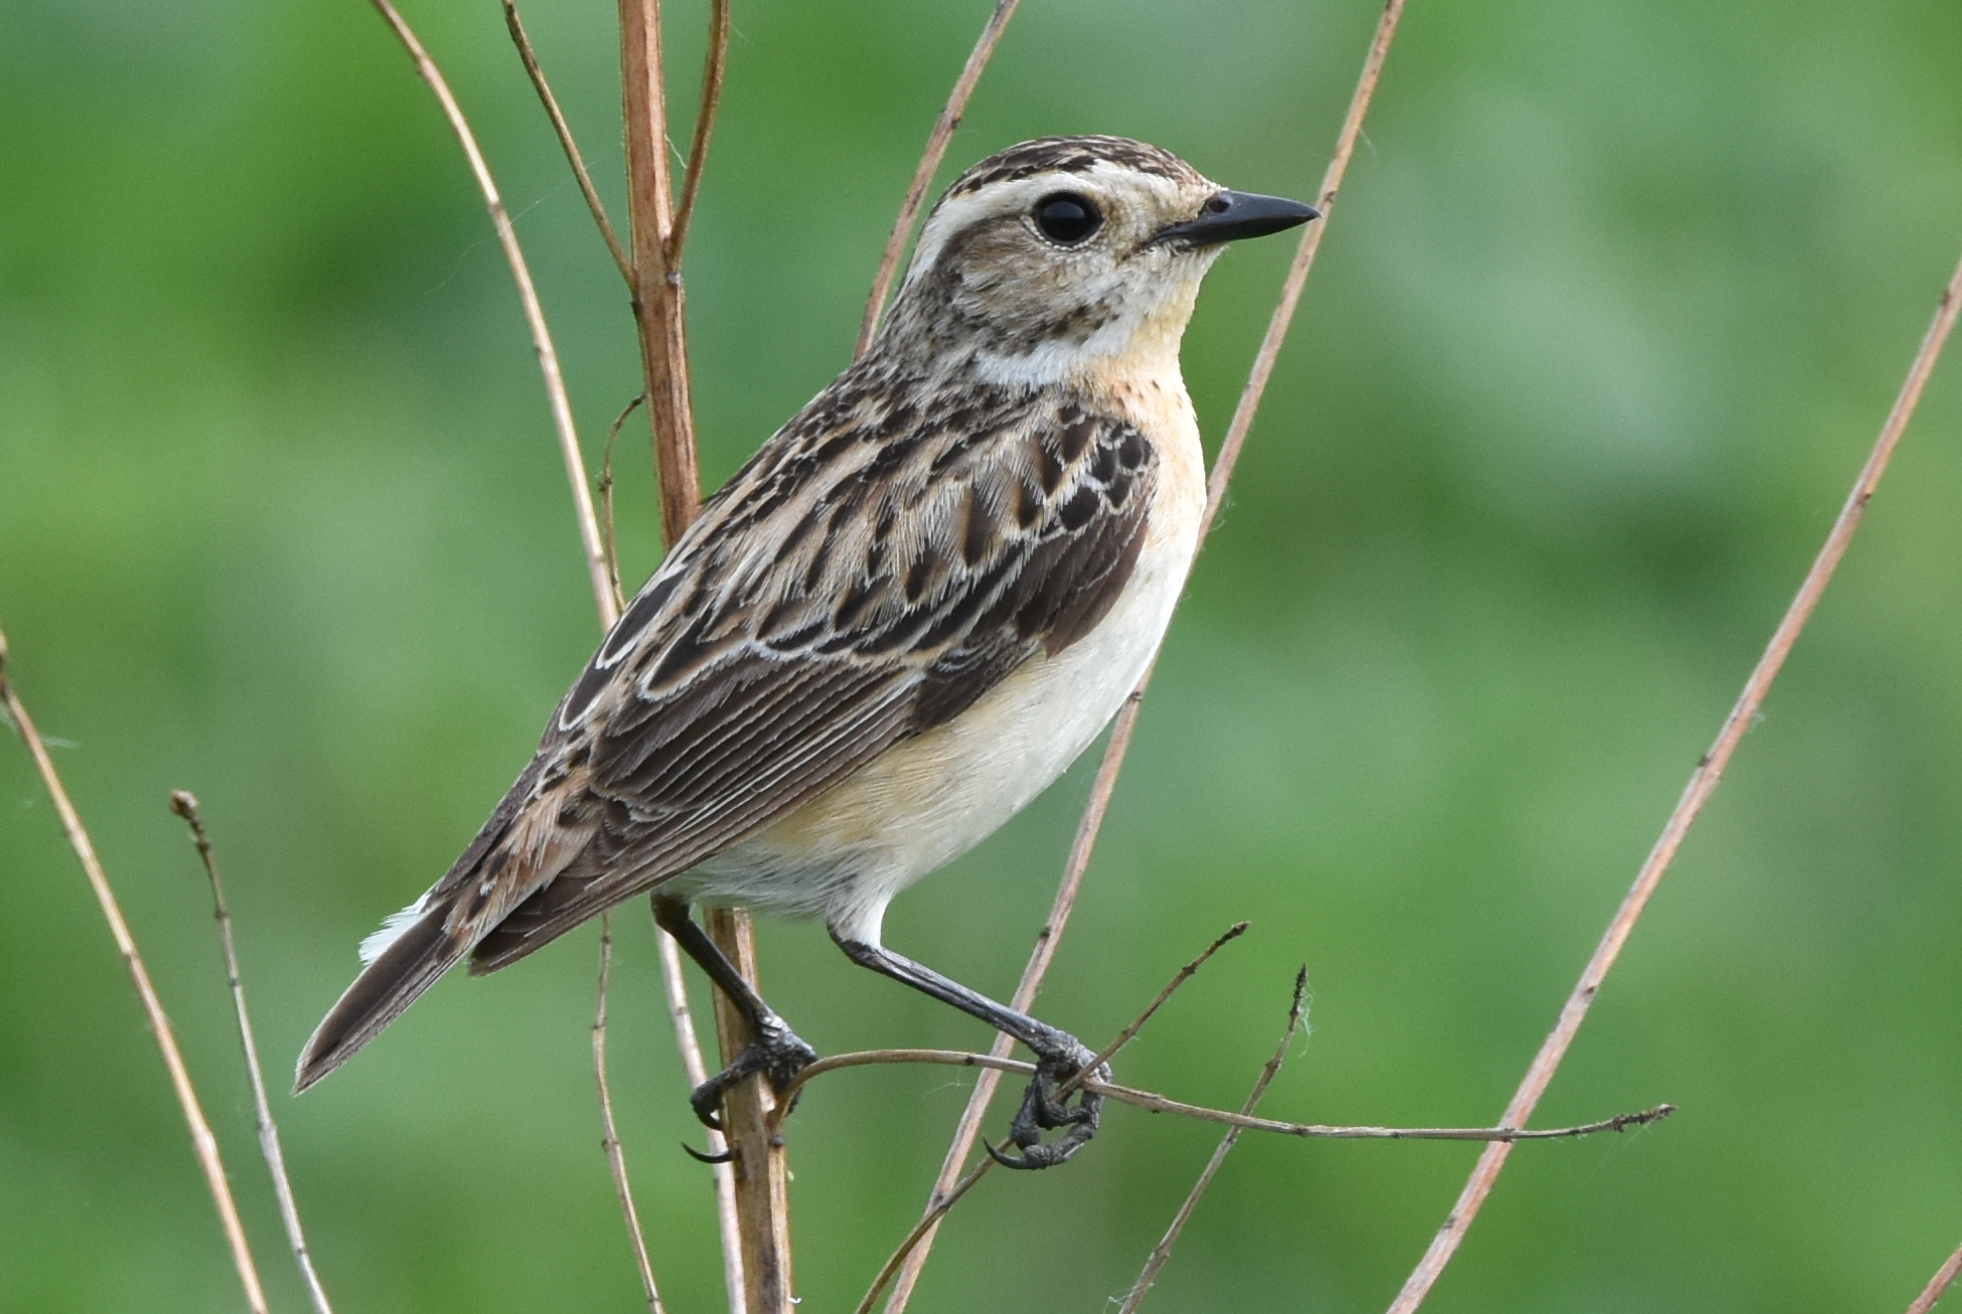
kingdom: Animalia
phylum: Chordata
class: Aves
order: Passeriformes
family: Muscicapidae
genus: Saxicola
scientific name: Saxicola rubetra
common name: Whinchat
